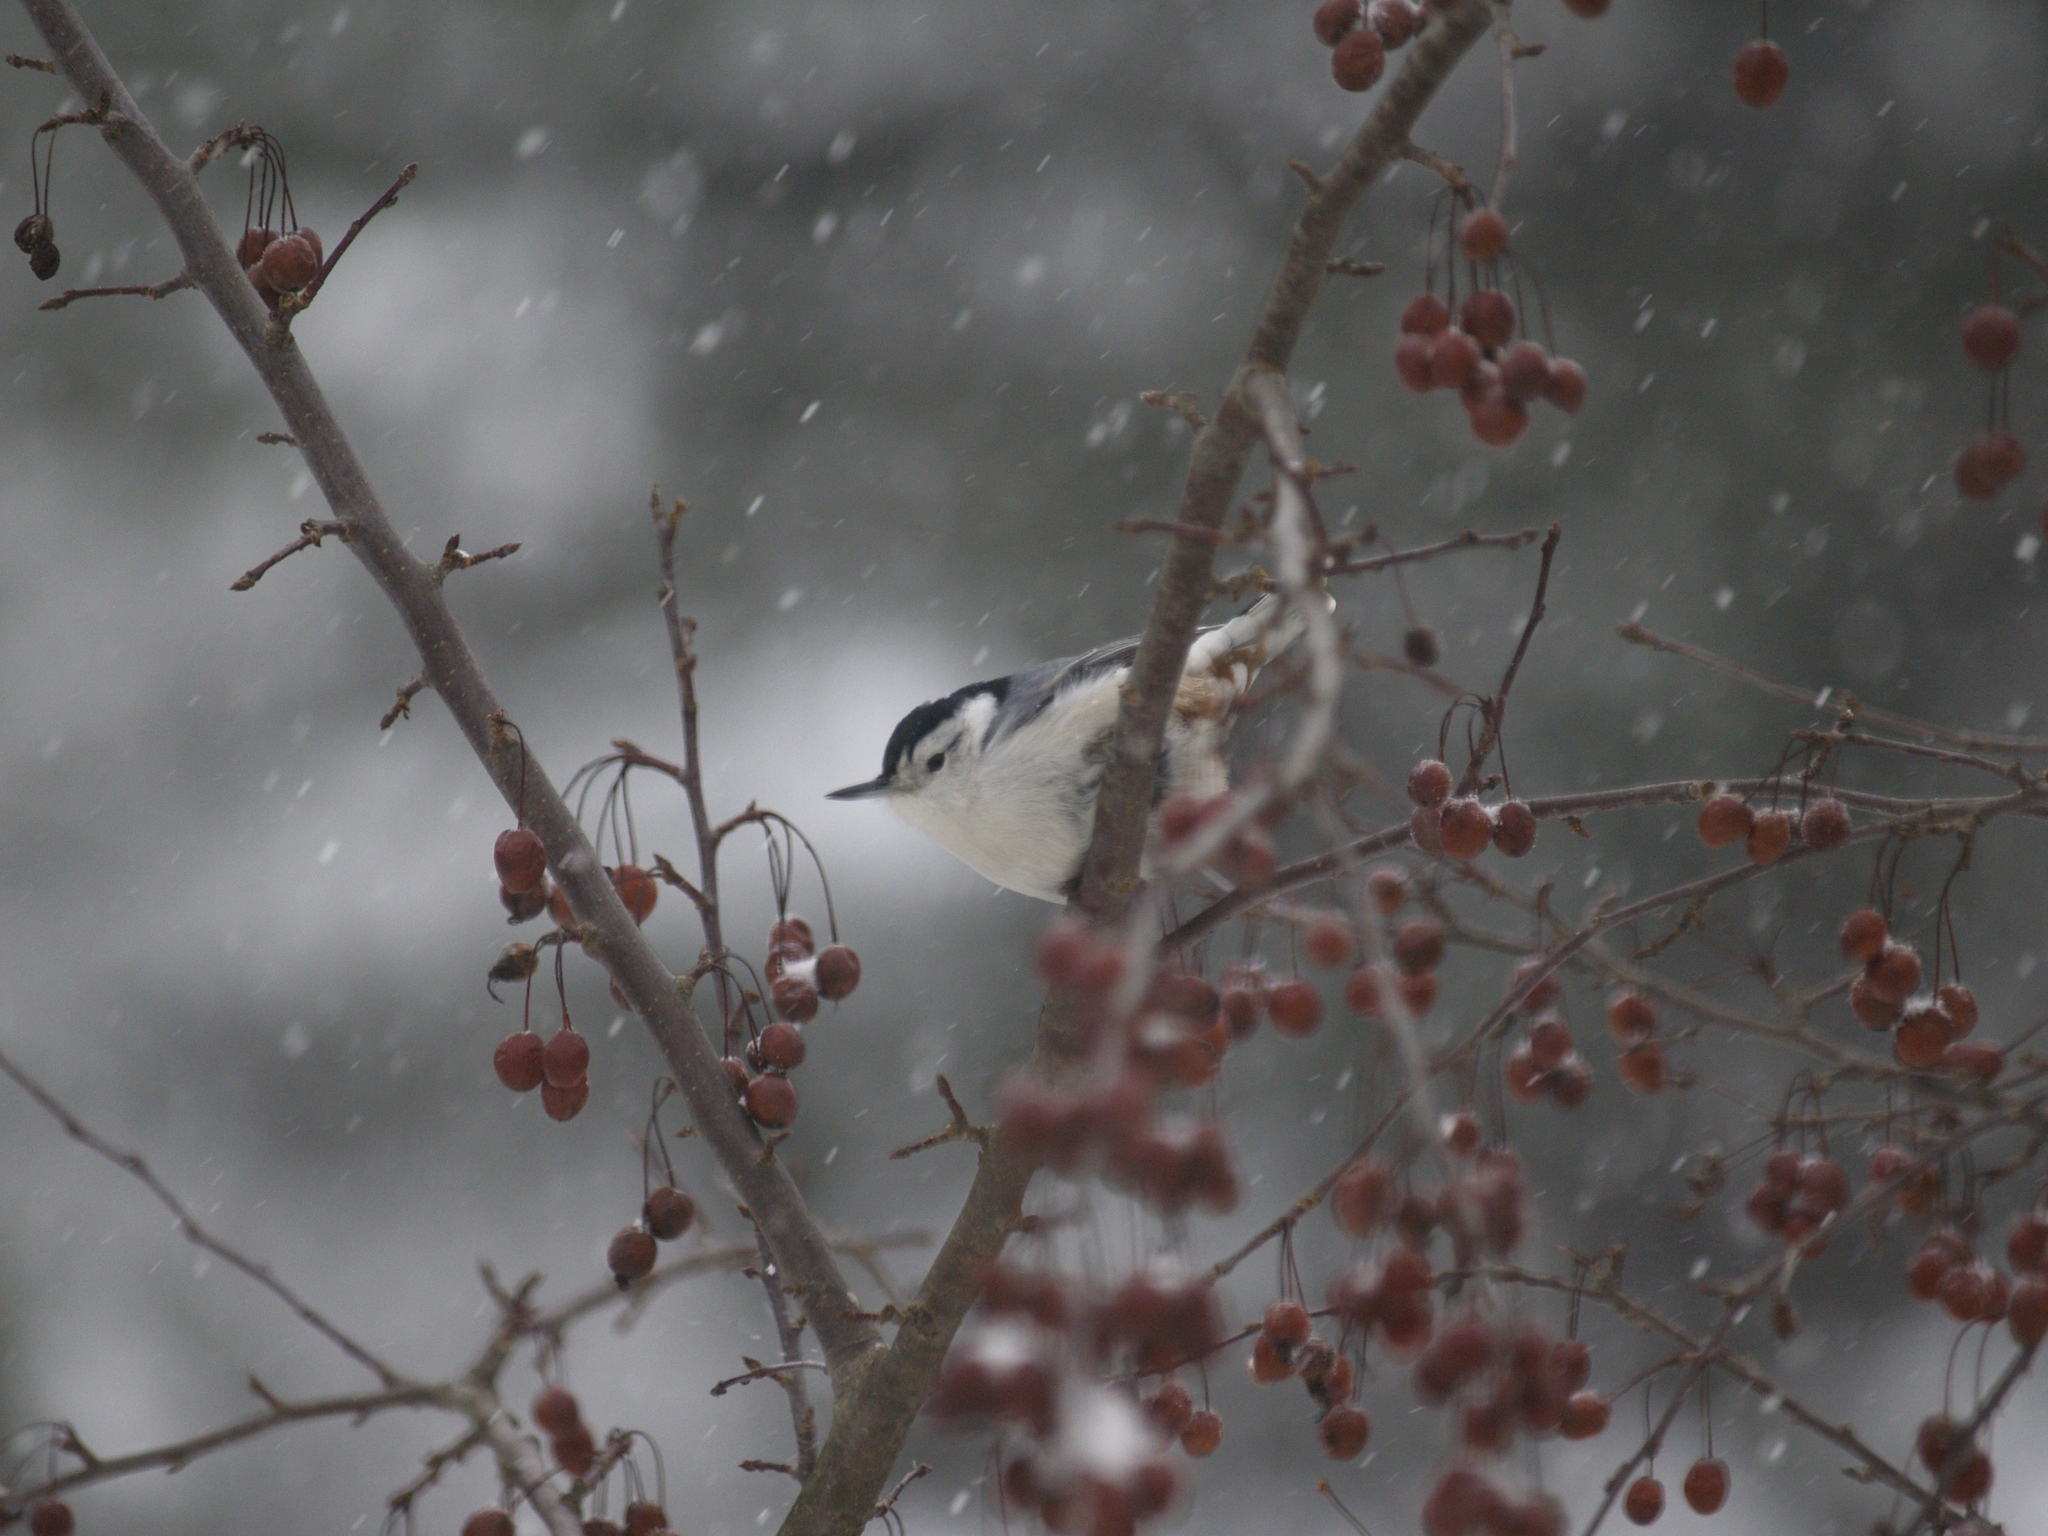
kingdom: Animalia
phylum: Chordata
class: Aves
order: Passeriformes
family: Sittidae
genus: Sitta
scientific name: Sitta carolinensis
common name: White-breasted nuthatch
